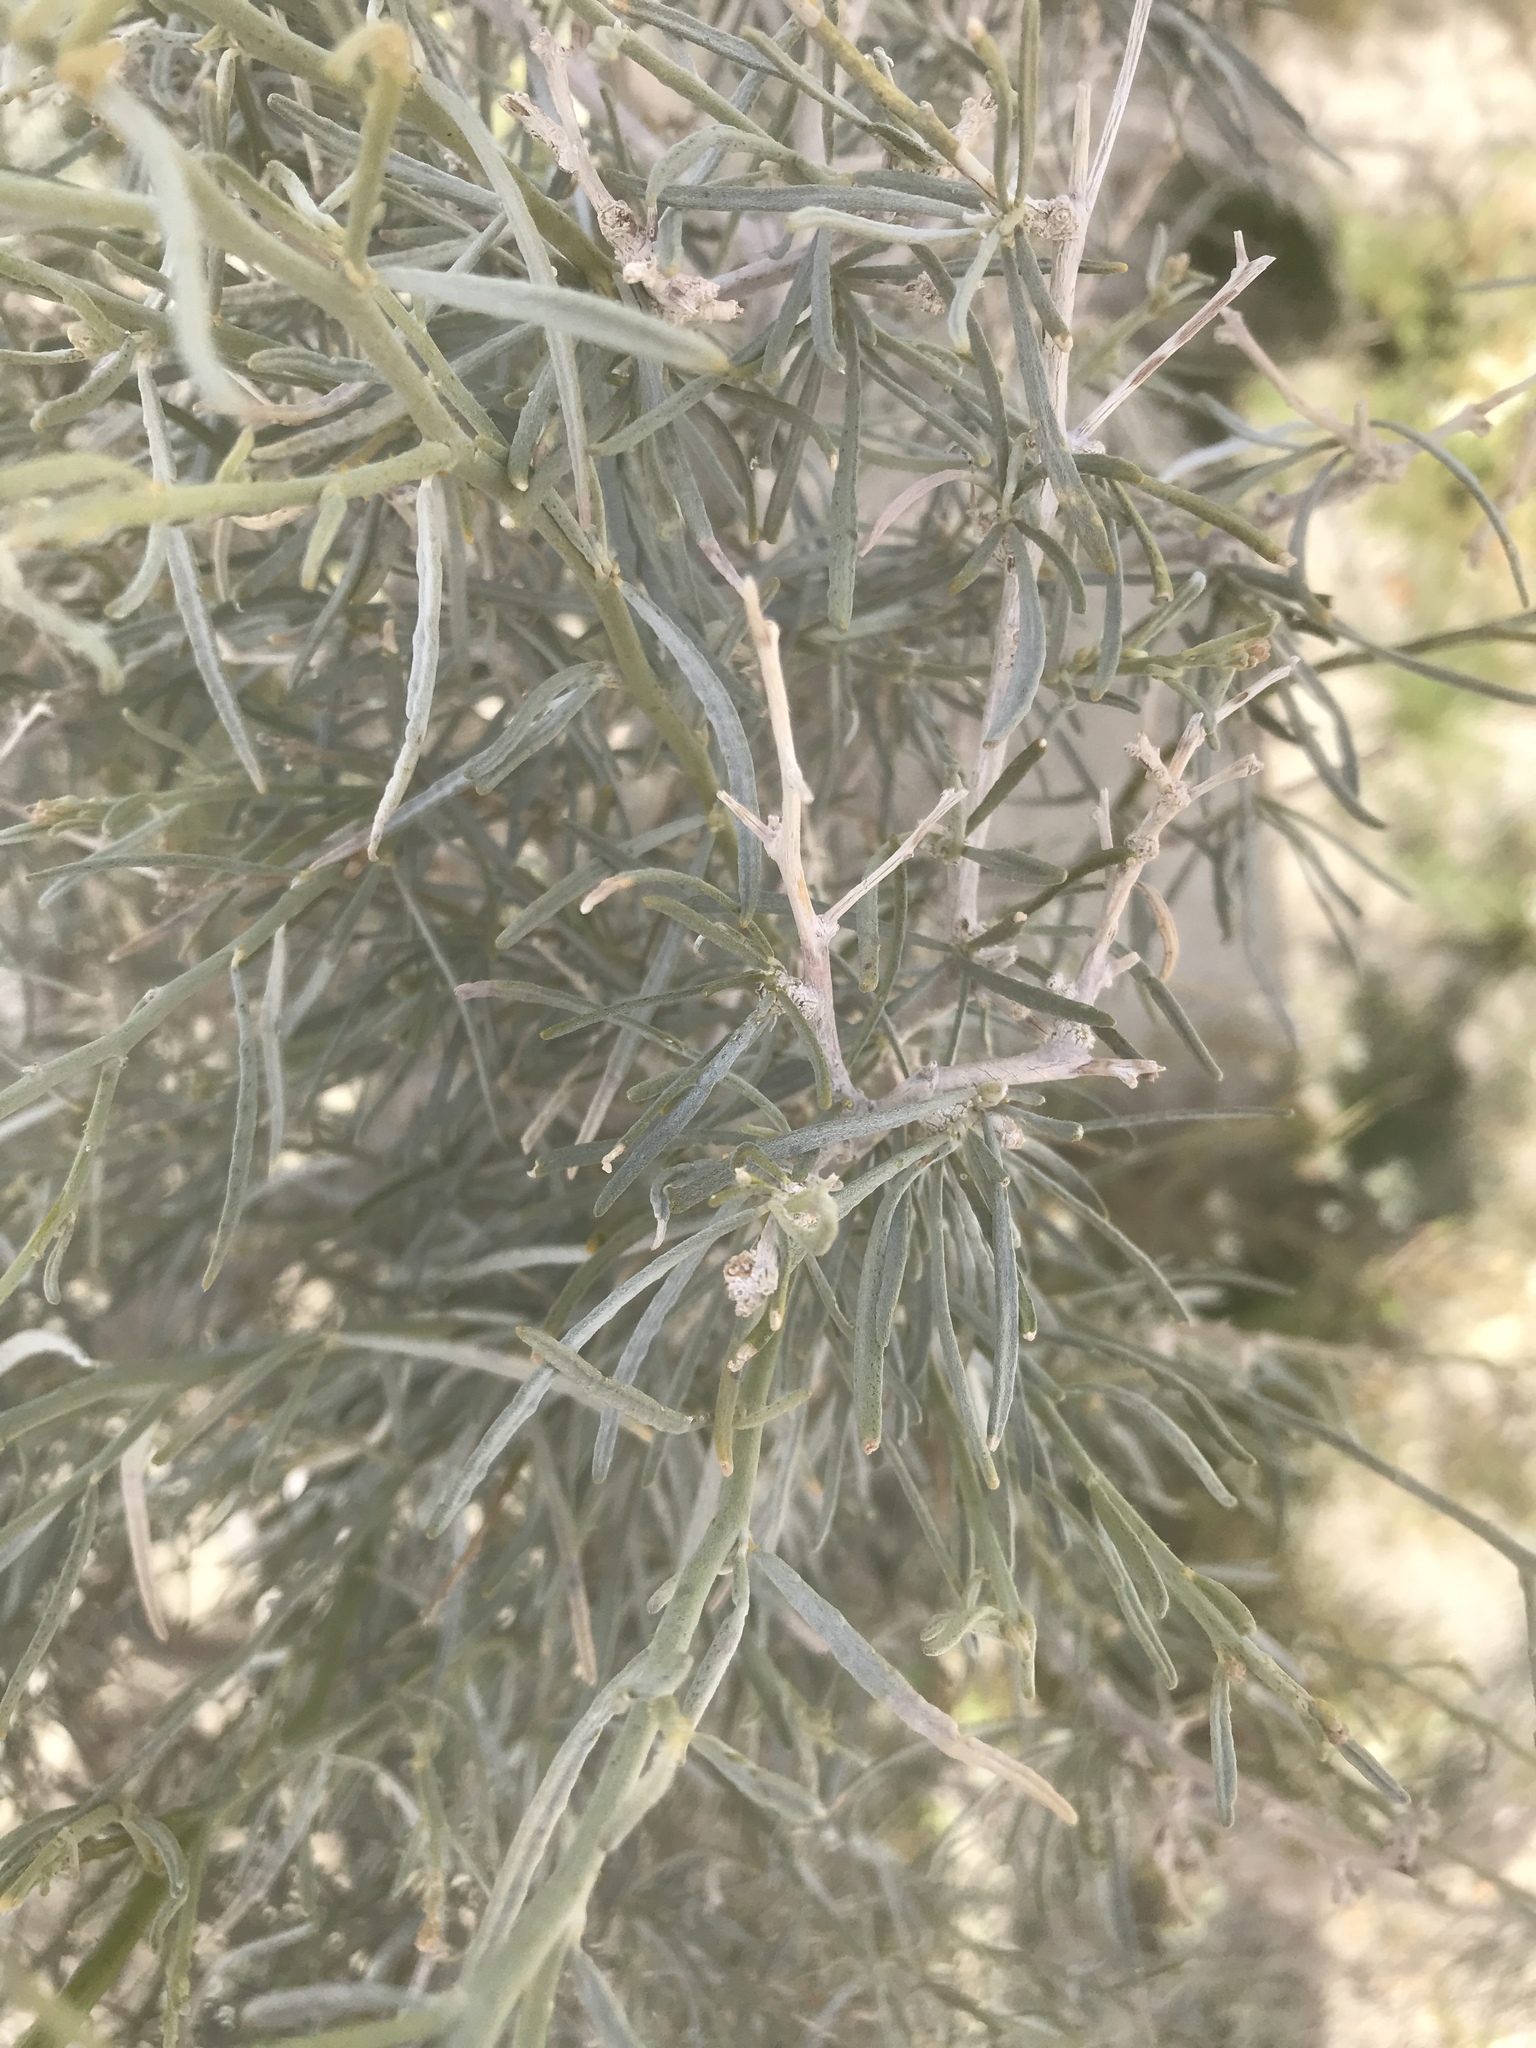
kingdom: Plantae
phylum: Tracheophyta
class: Magnoliopsida
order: Fabales
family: Fabaceae
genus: Psorothamnus
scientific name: Psorothamnus schottii
